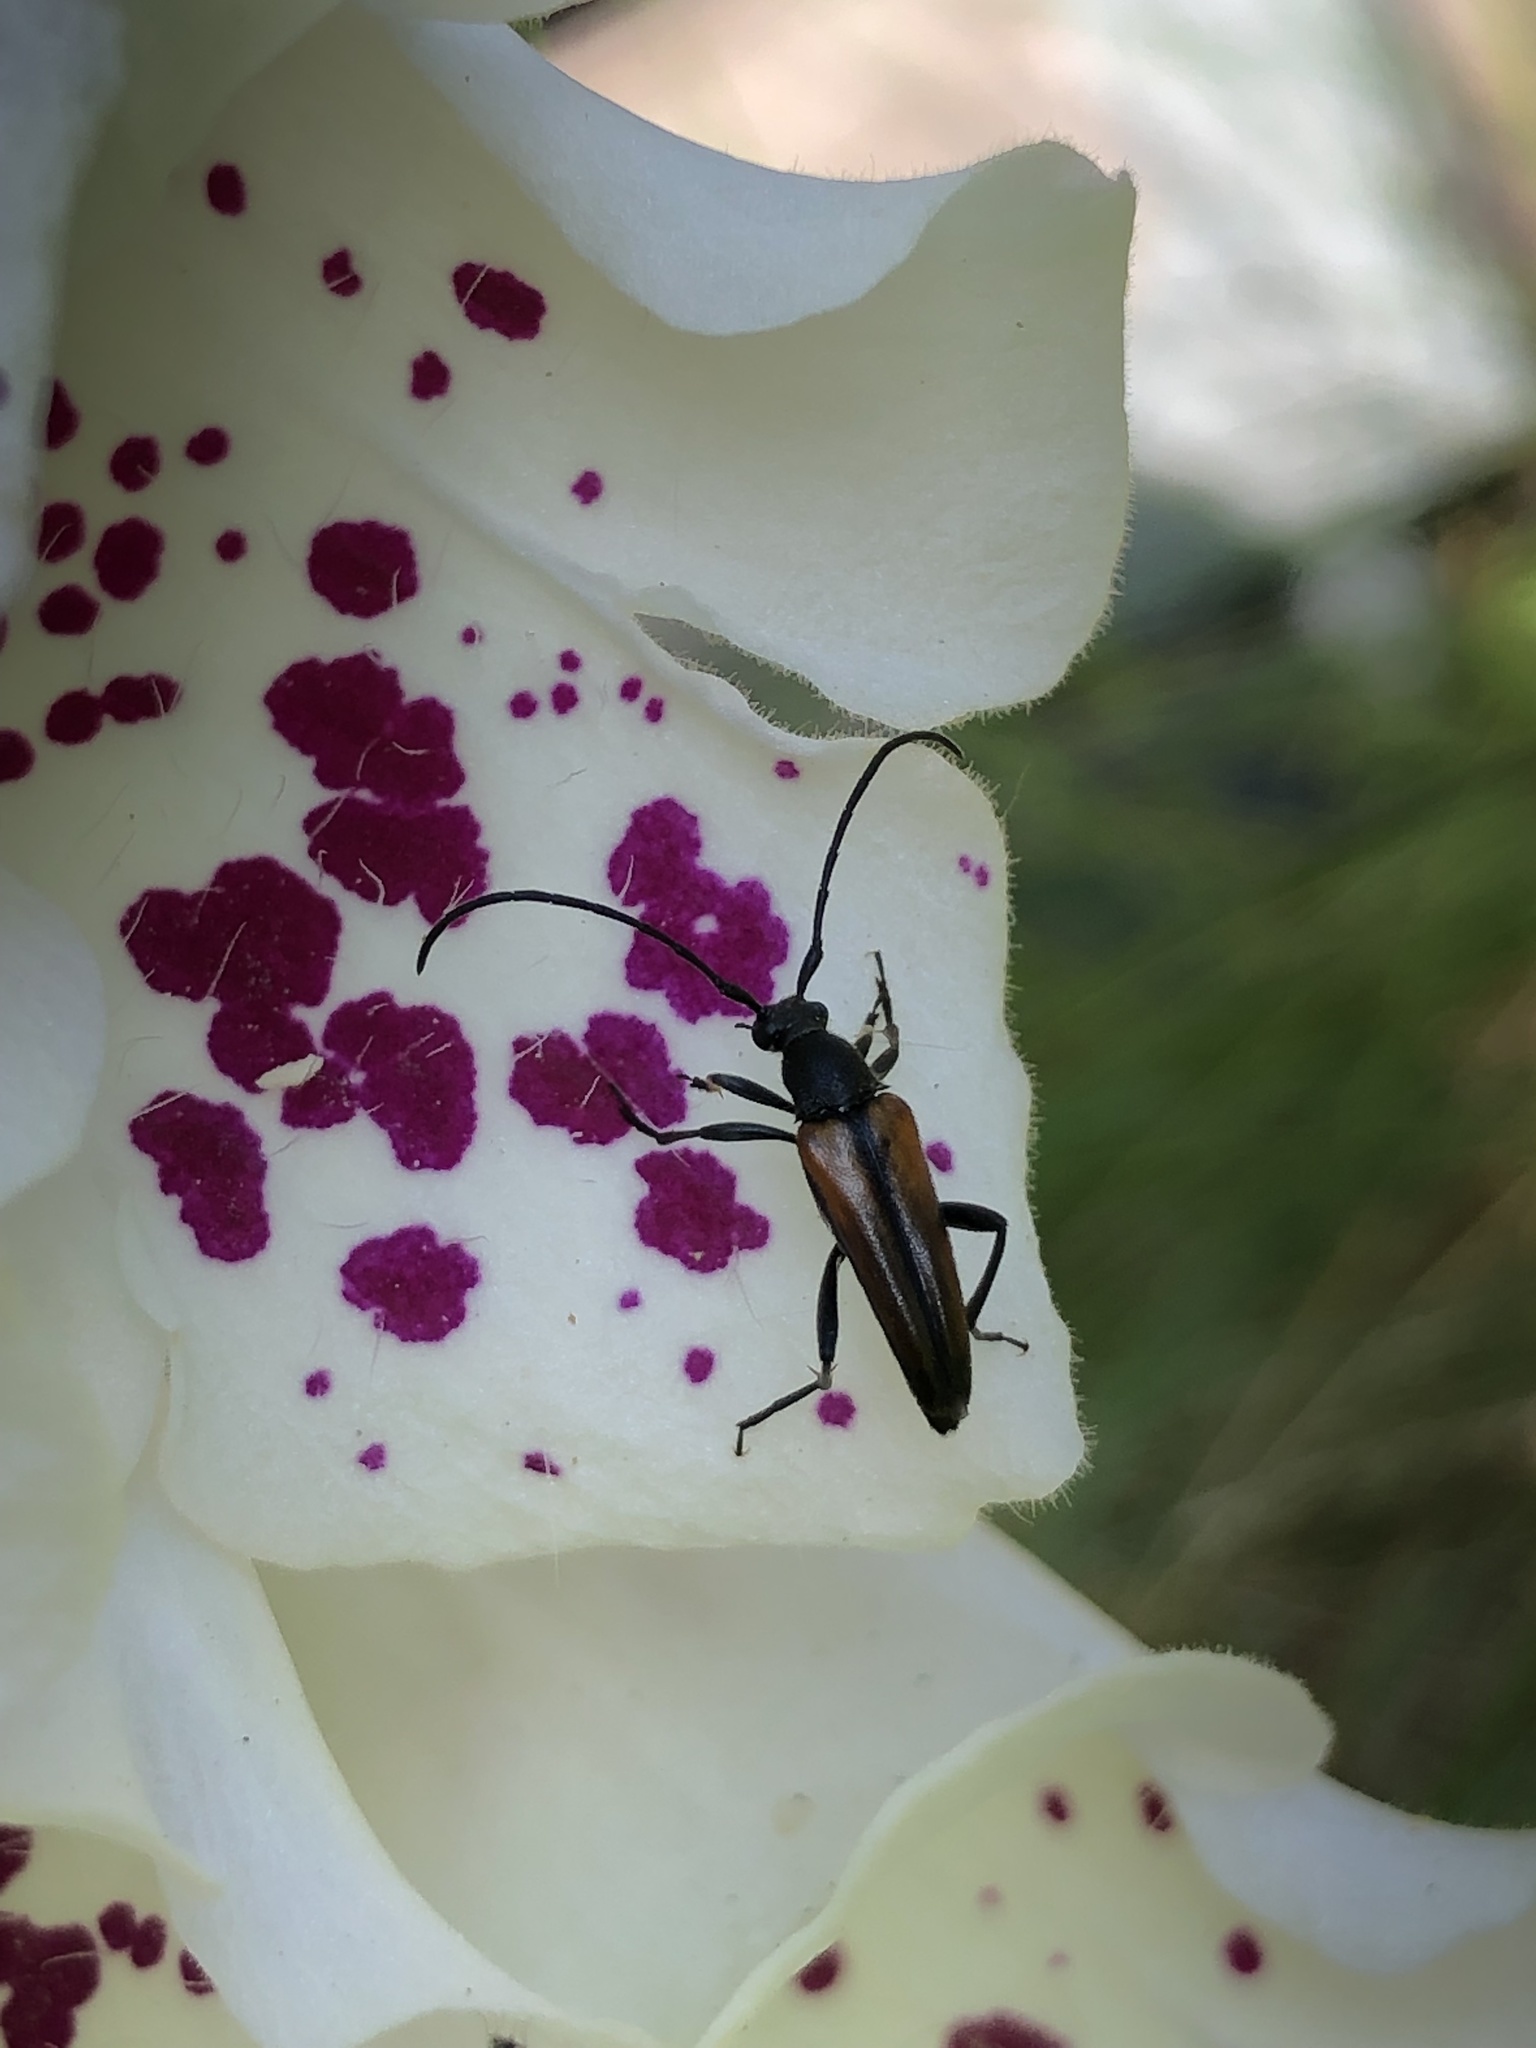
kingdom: Animalia
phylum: Arthropoda
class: Insecta
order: Coleoptera
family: Cerambycidae
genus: Stenurella
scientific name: Stenurella melanura
